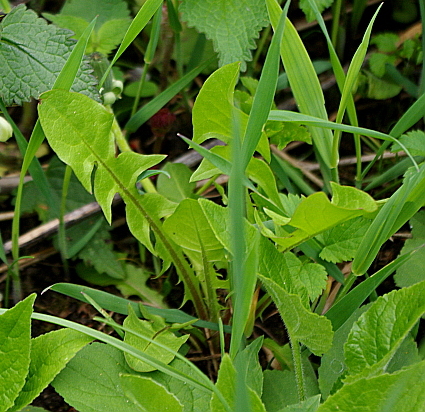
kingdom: Plantae
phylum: Tracheophyta
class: Magnoliopsida
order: Asterales
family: Asteraceae
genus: Taraxacum
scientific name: Taraxacum officinale
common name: Common dandelion
